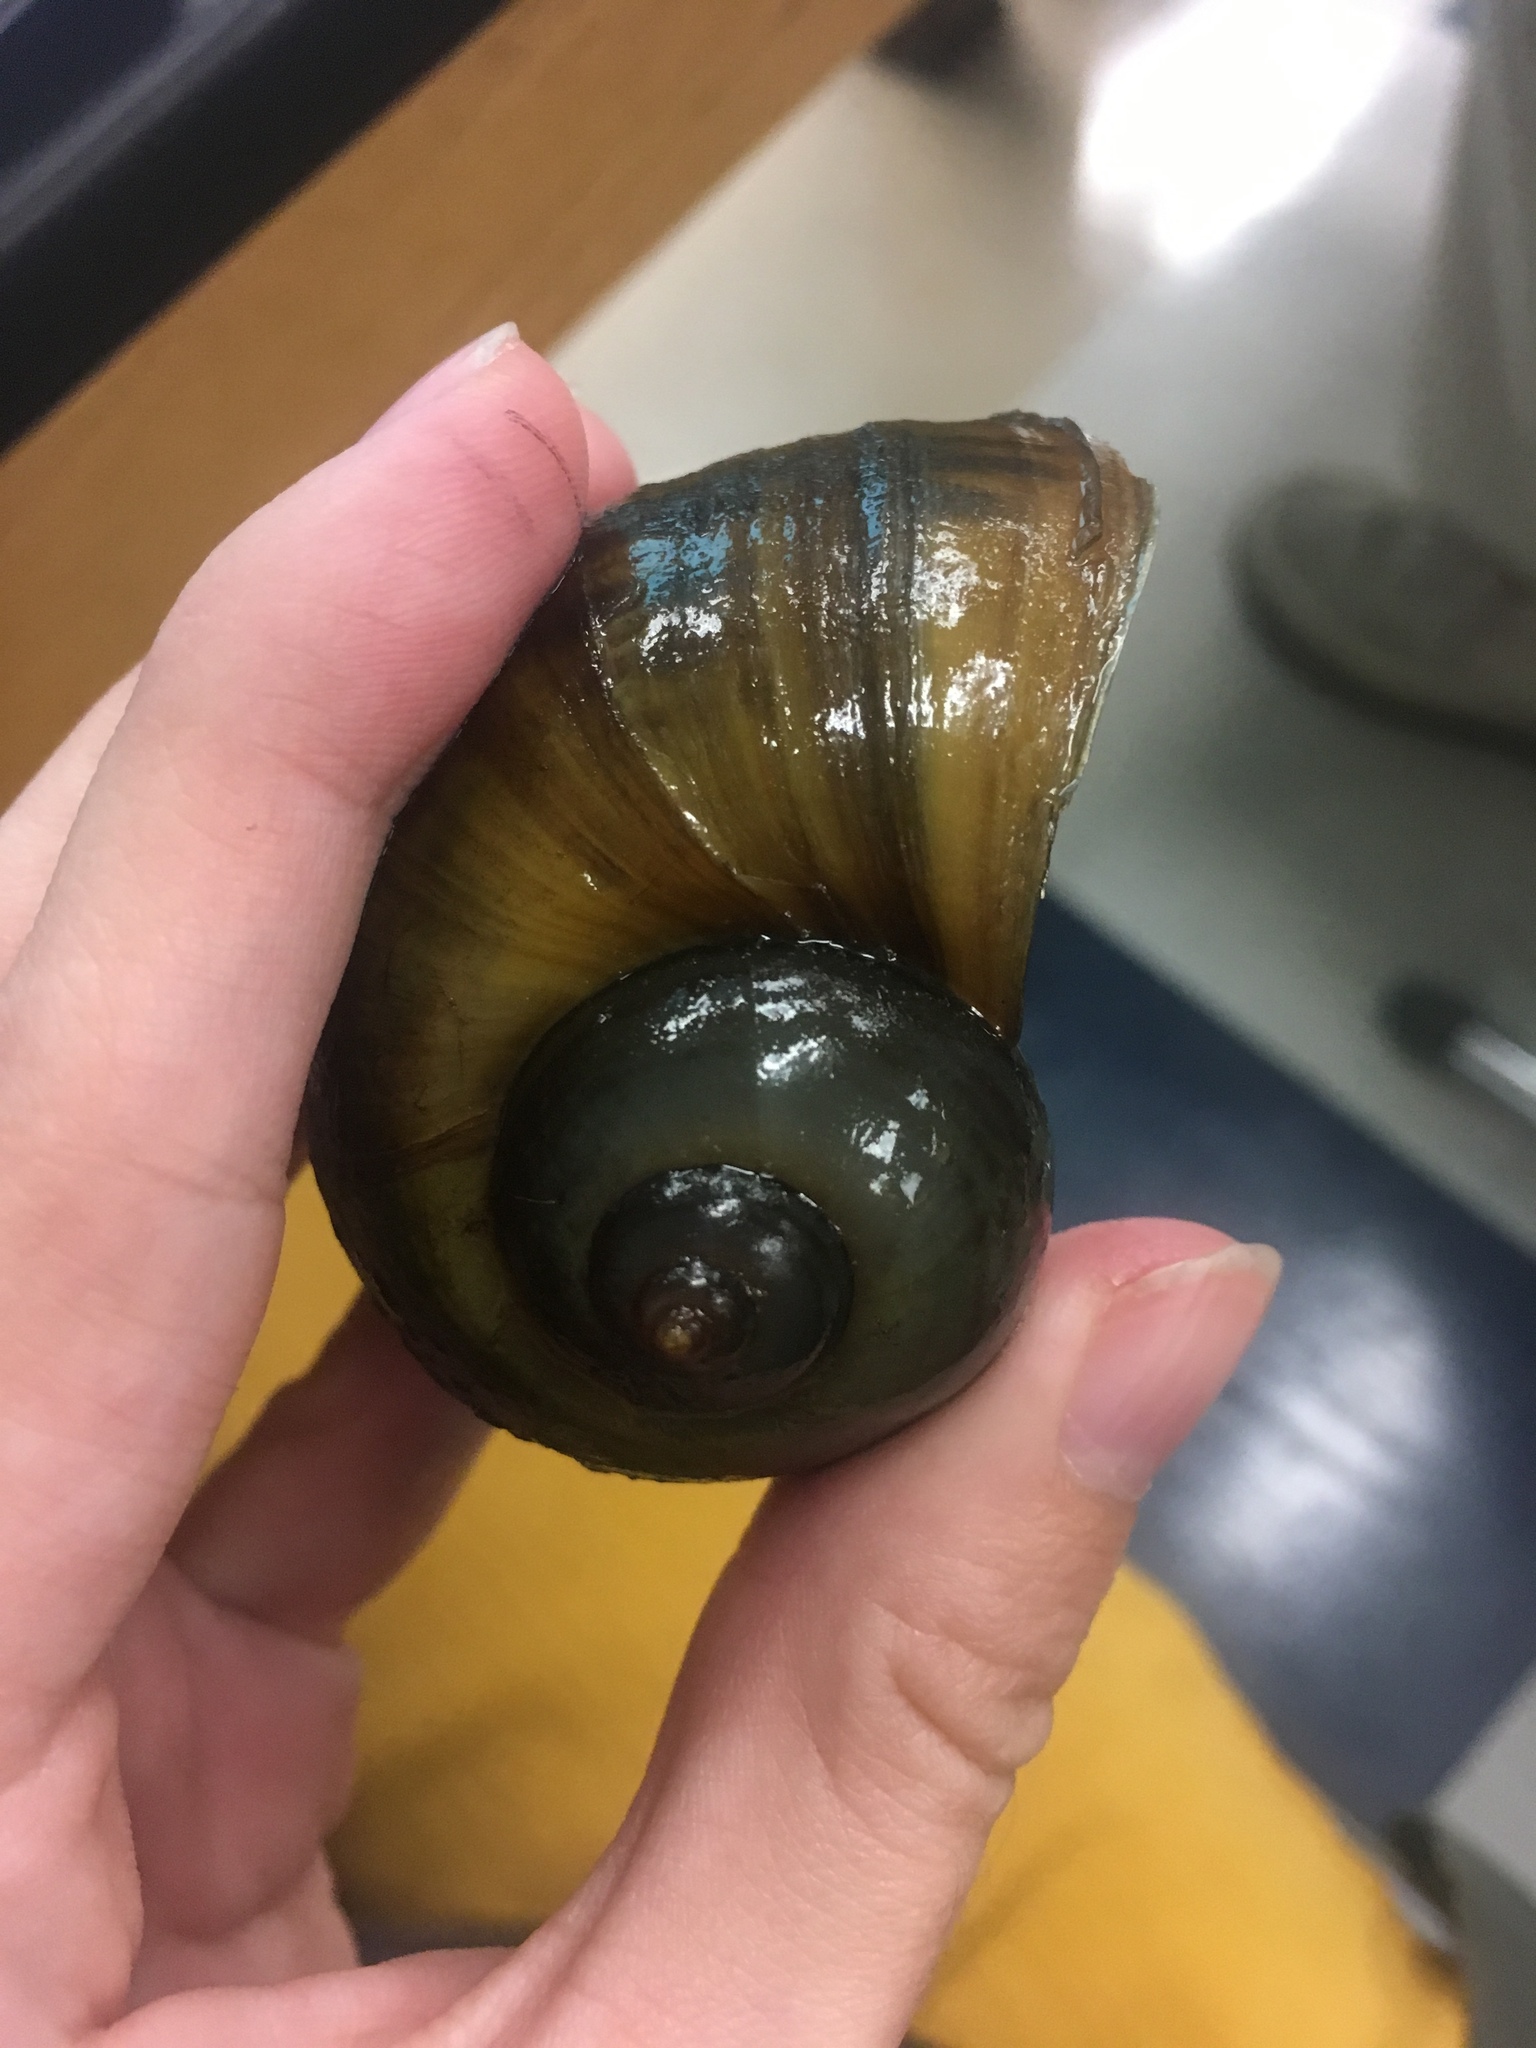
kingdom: Animalia
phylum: Mollusca
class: Gastropoda
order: Architaenioglossa
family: Ampullariidae
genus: Pomacea
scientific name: Pomacea maculata
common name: Giant applesnail
